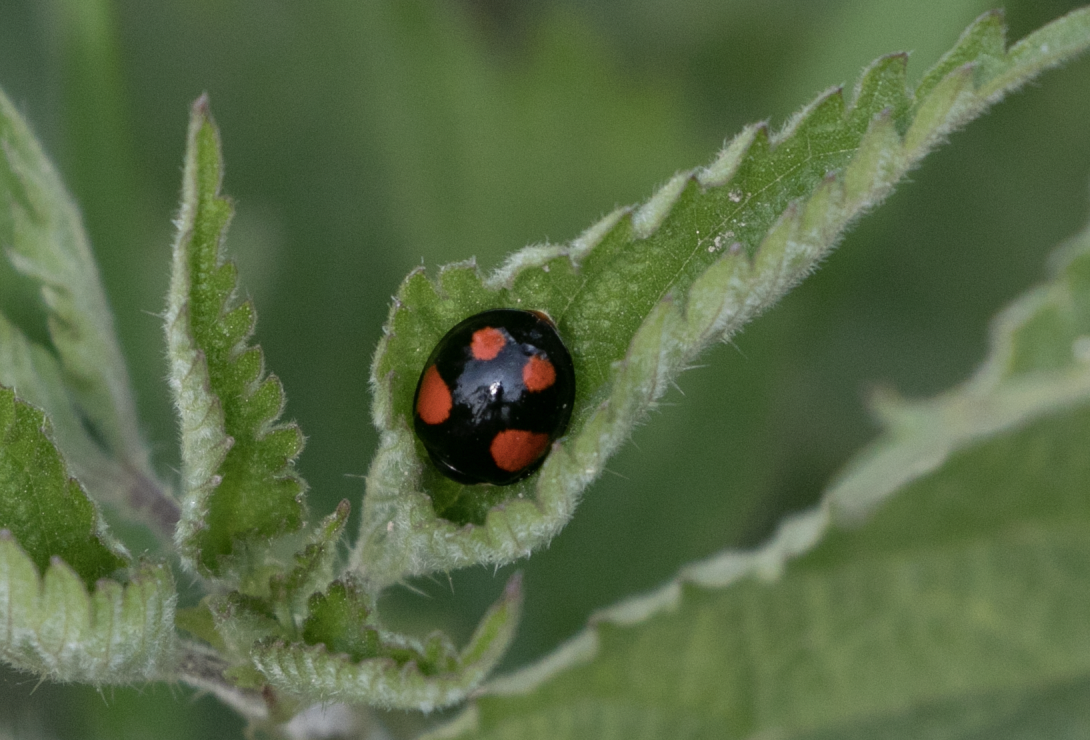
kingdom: Animalia
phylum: Arthropoda
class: Insecta
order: Coleoptera
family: Coccinellidae
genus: Harmonia
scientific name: Harmonia axyridis
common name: Harlequin ladybird
